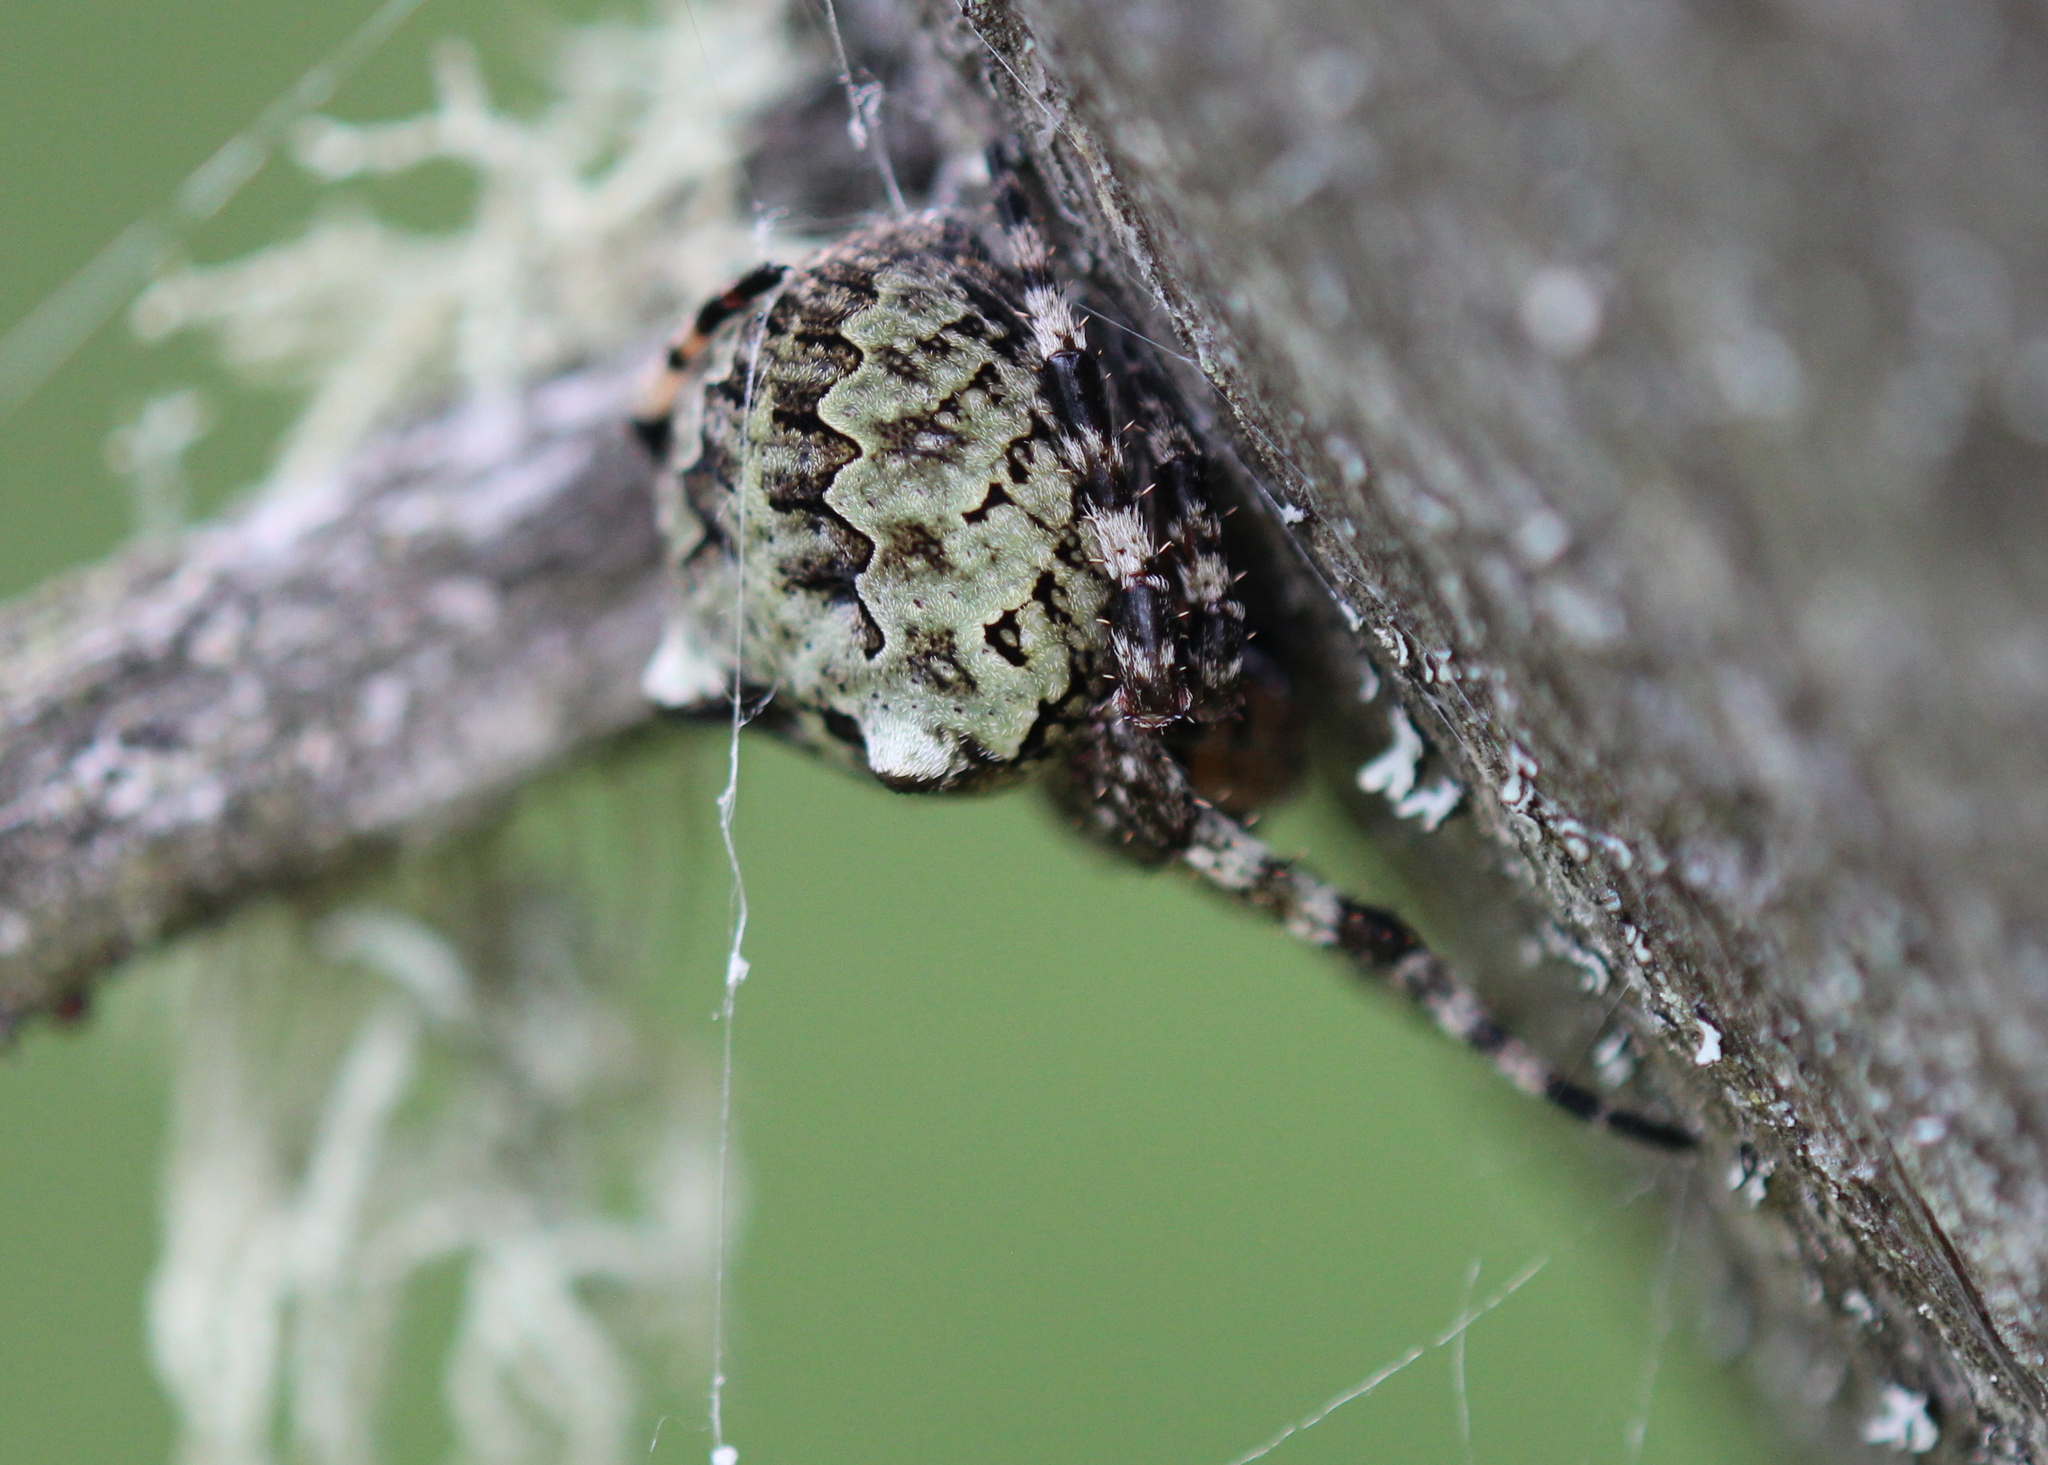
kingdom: Animalia
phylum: Arthropoda
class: Arachnida
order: Araneae
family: Araneidae
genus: Araneus
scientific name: Araneus bicentenarius
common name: Giant lichen orbweaver
